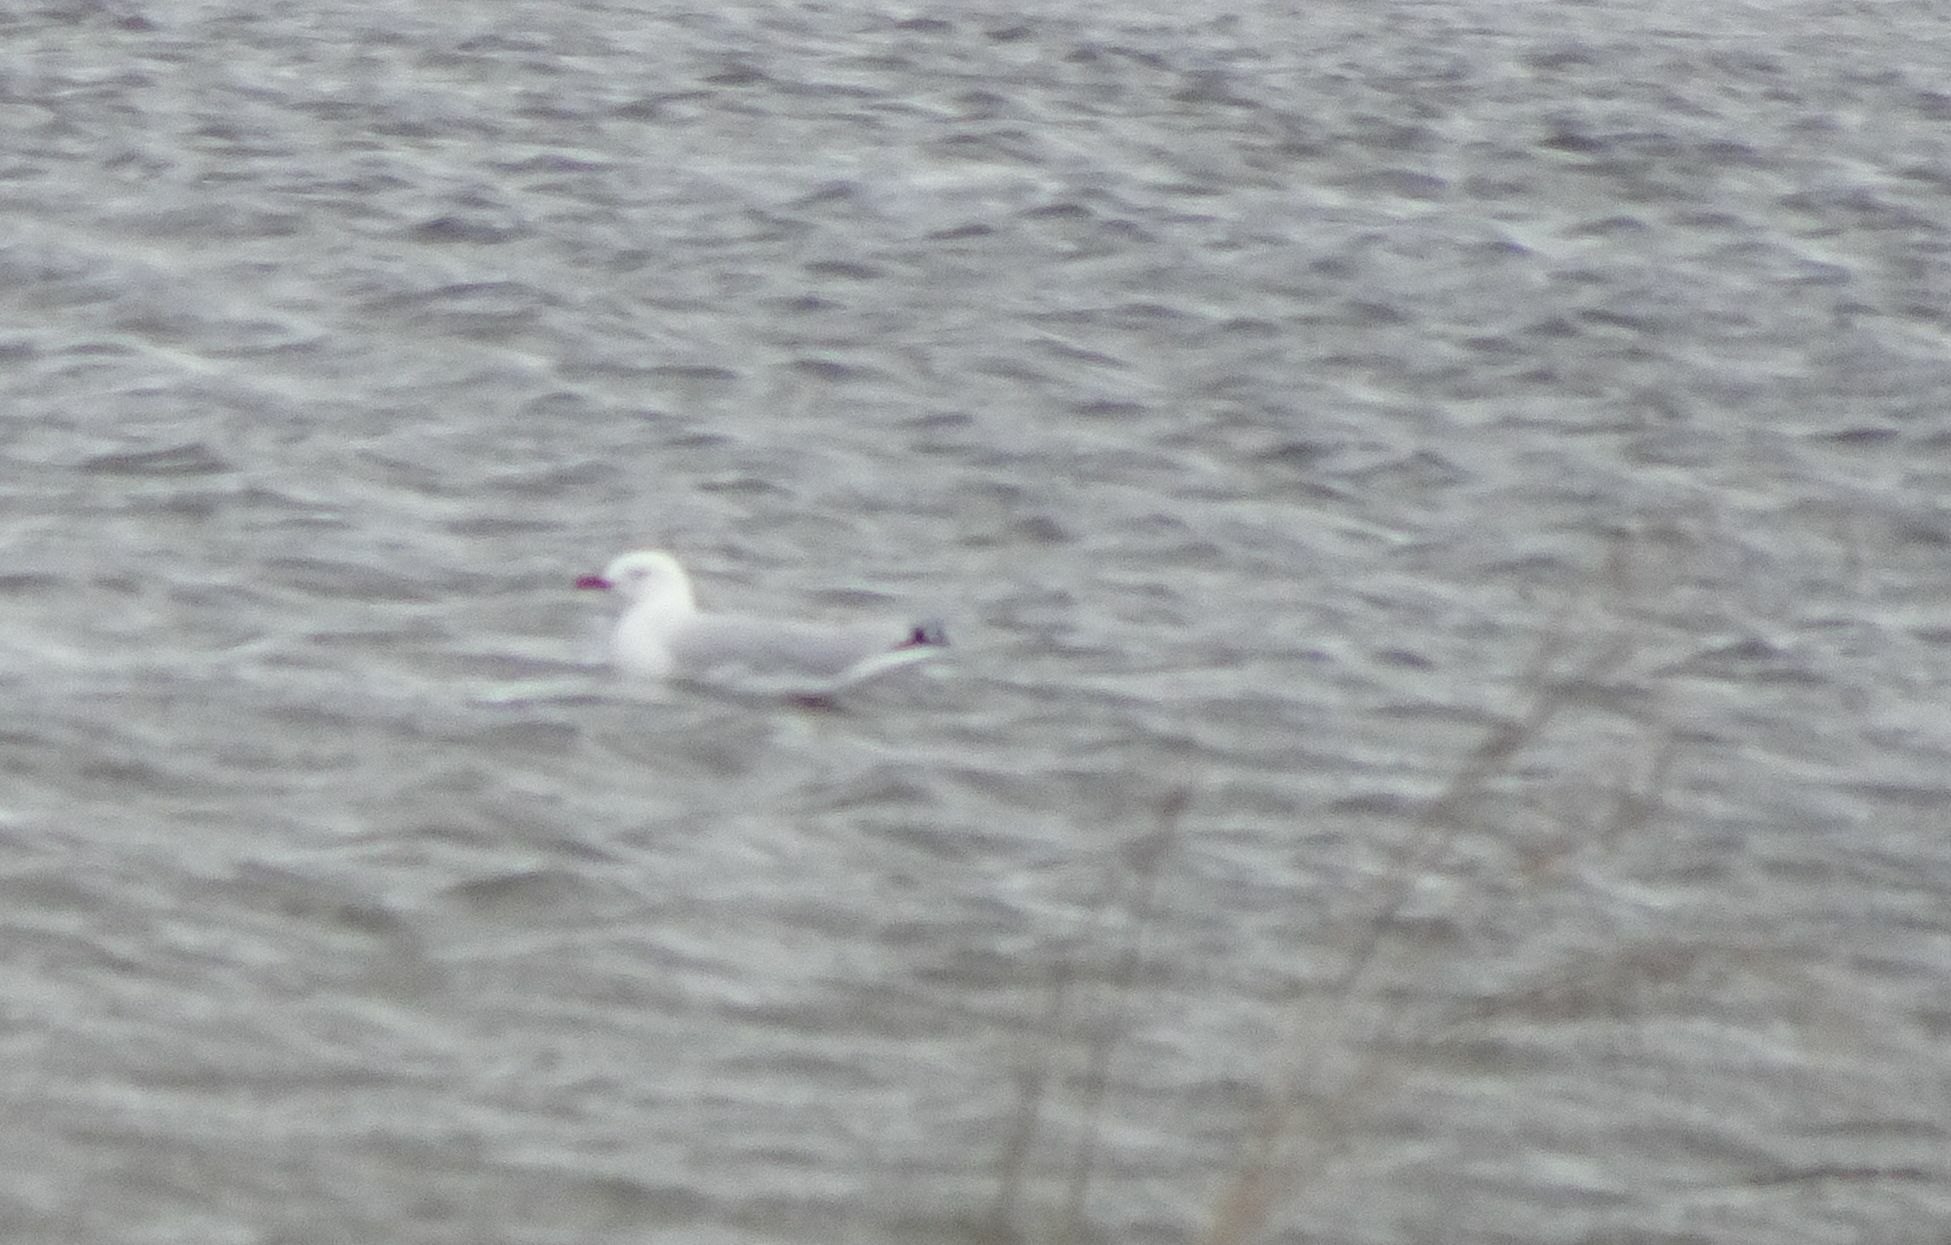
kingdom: Animalia
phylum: Chordata
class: Aves
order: Charadriiformes
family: Laridae
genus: Chroicocephalus
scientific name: Chroicocephalus novaehollandiae
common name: Silver gull
